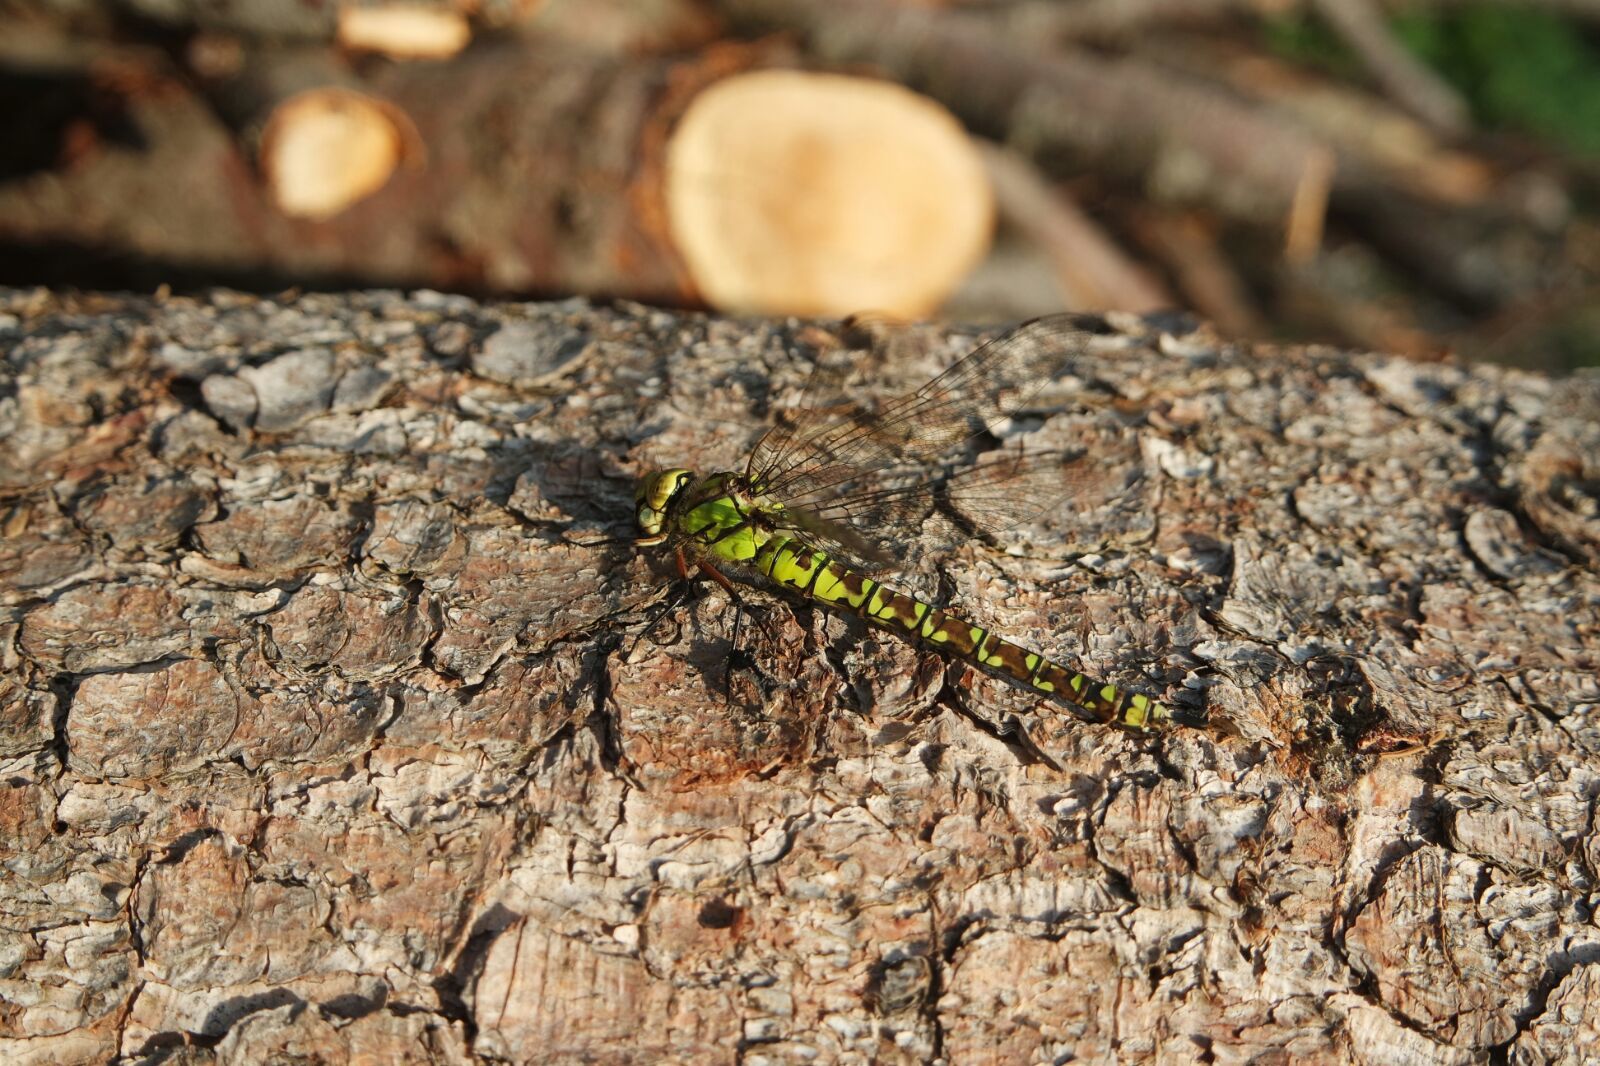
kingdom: Animalia
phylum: Arthropoda
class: Insecta
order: Odonata
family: Aeshnidae
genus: Aeshna
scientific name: Aeshna cyanea
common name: Southern hawker
